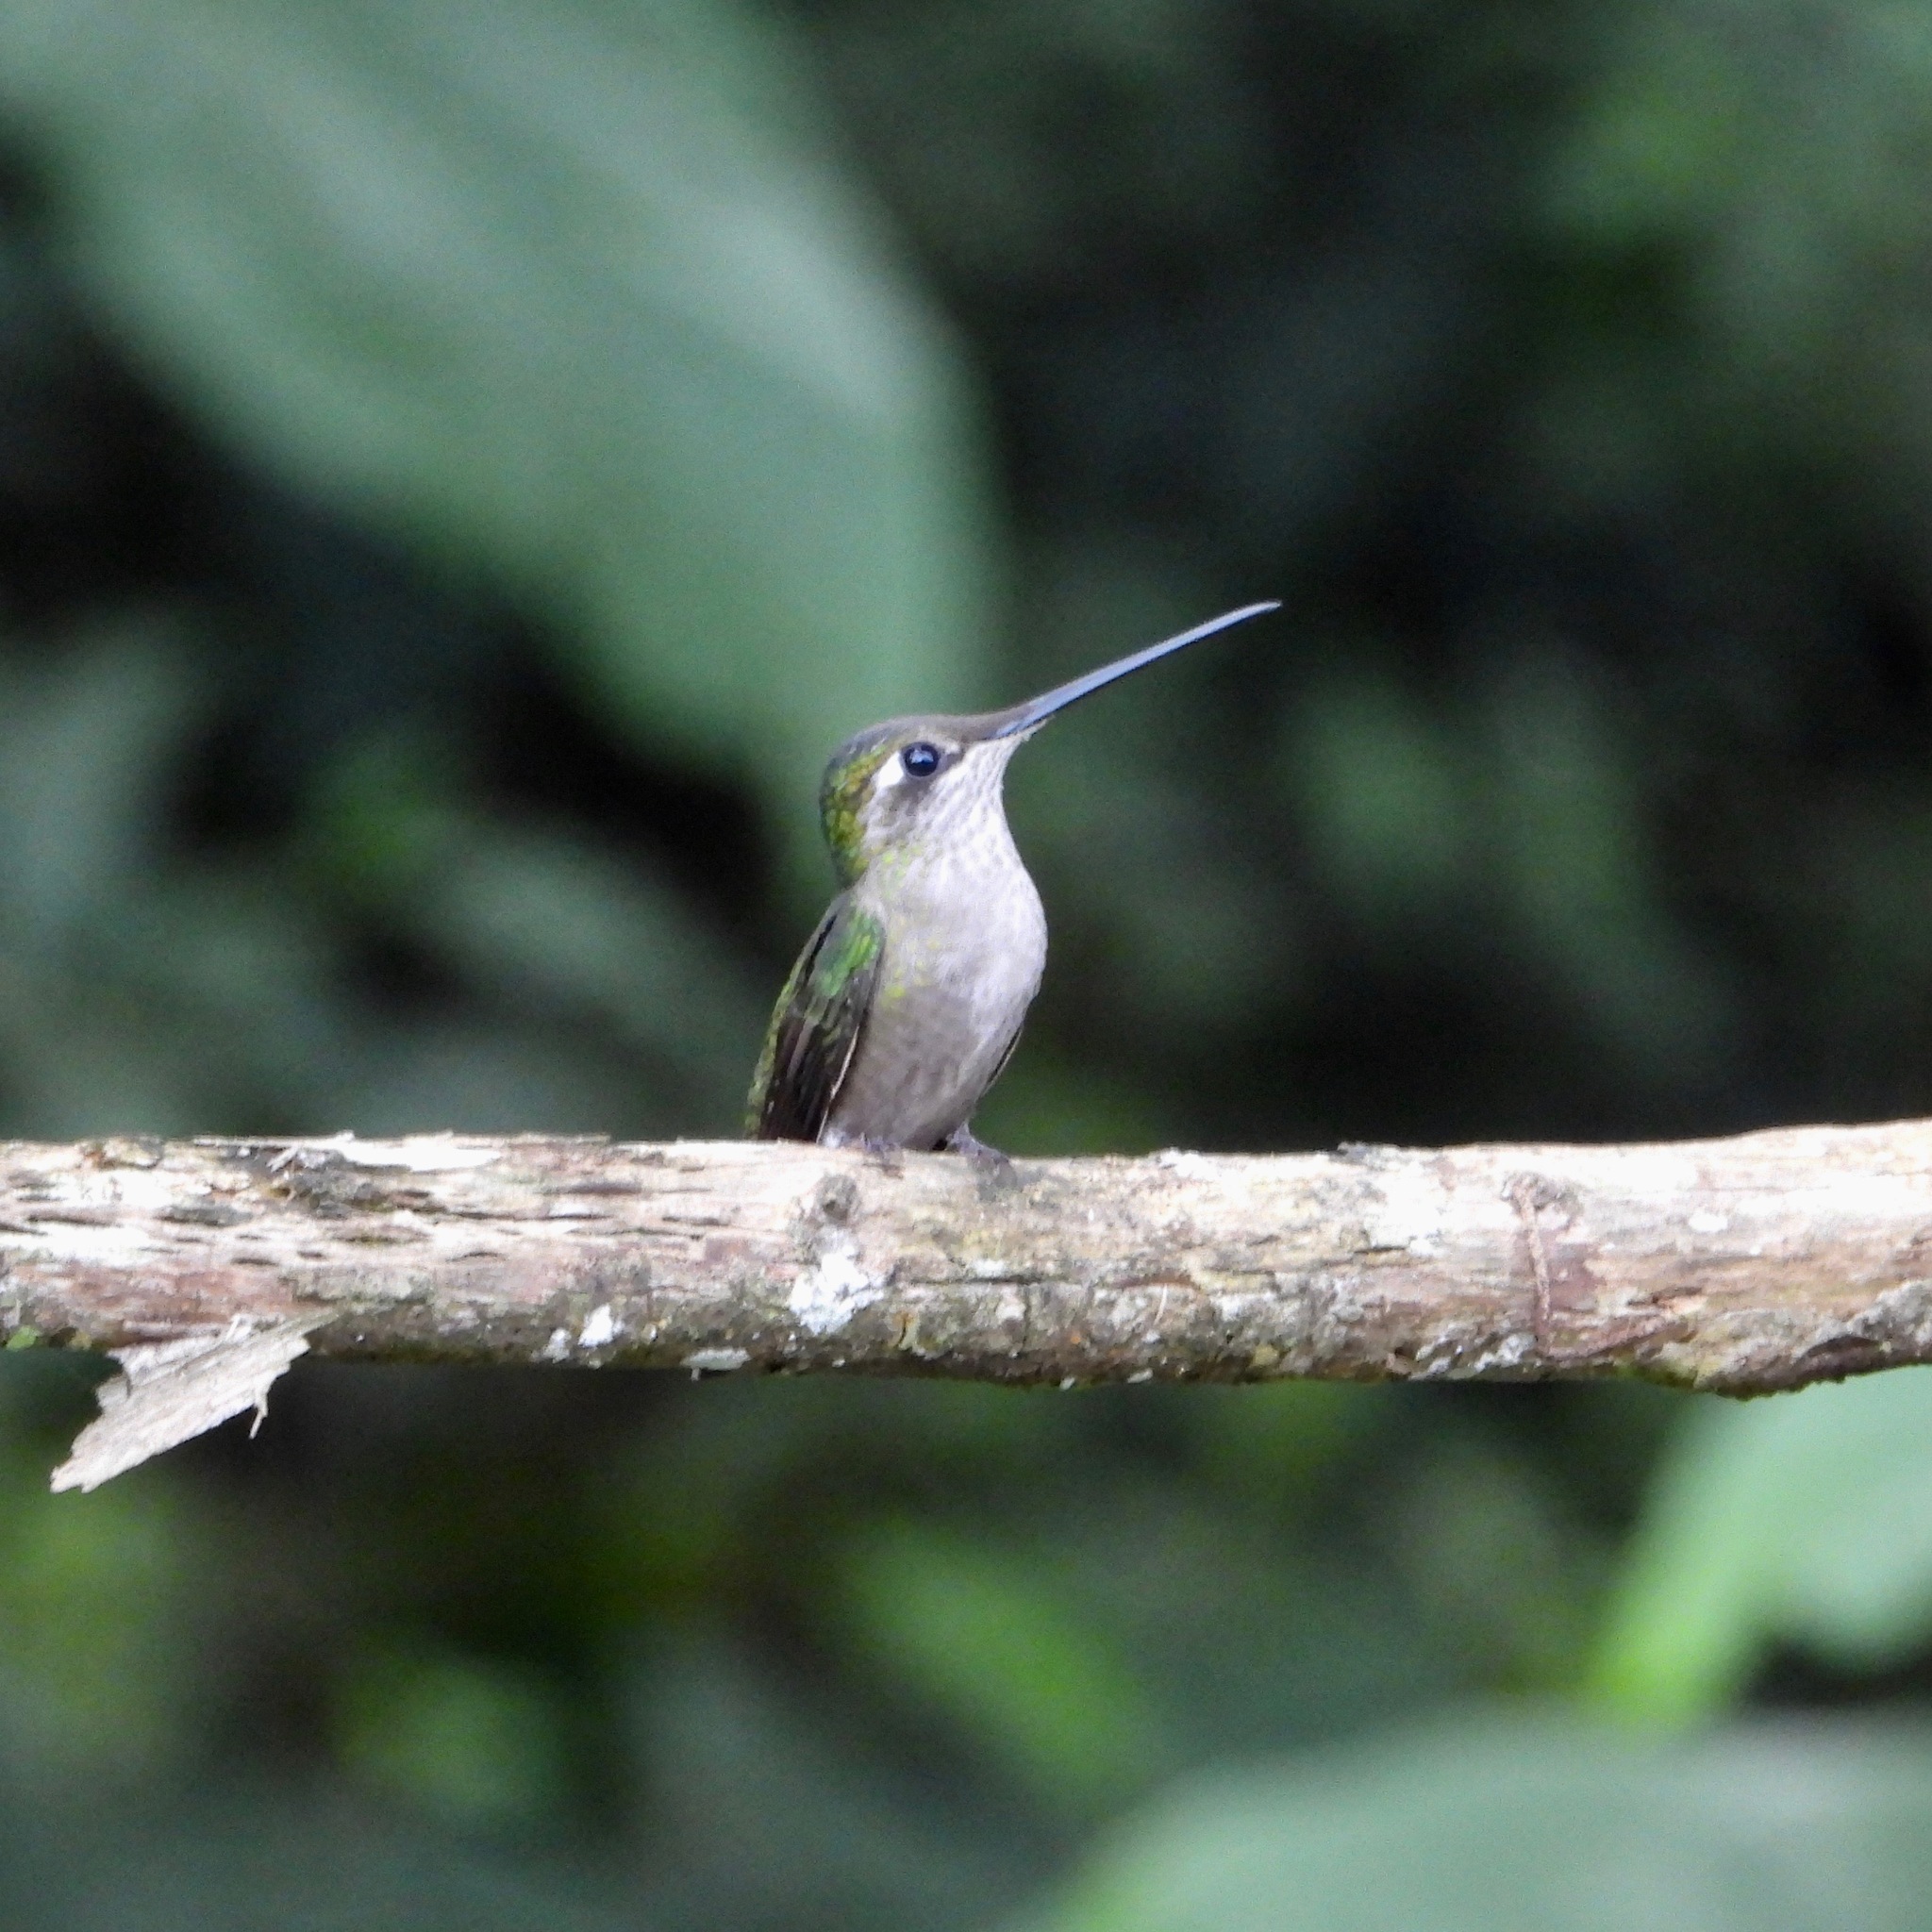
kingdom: Animalia
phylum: Chordata
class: Aves
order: Apodiformes
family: Trochilidae
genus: Eugenes
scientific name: Eugenes fulgens
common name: Magnificent hummingbird
